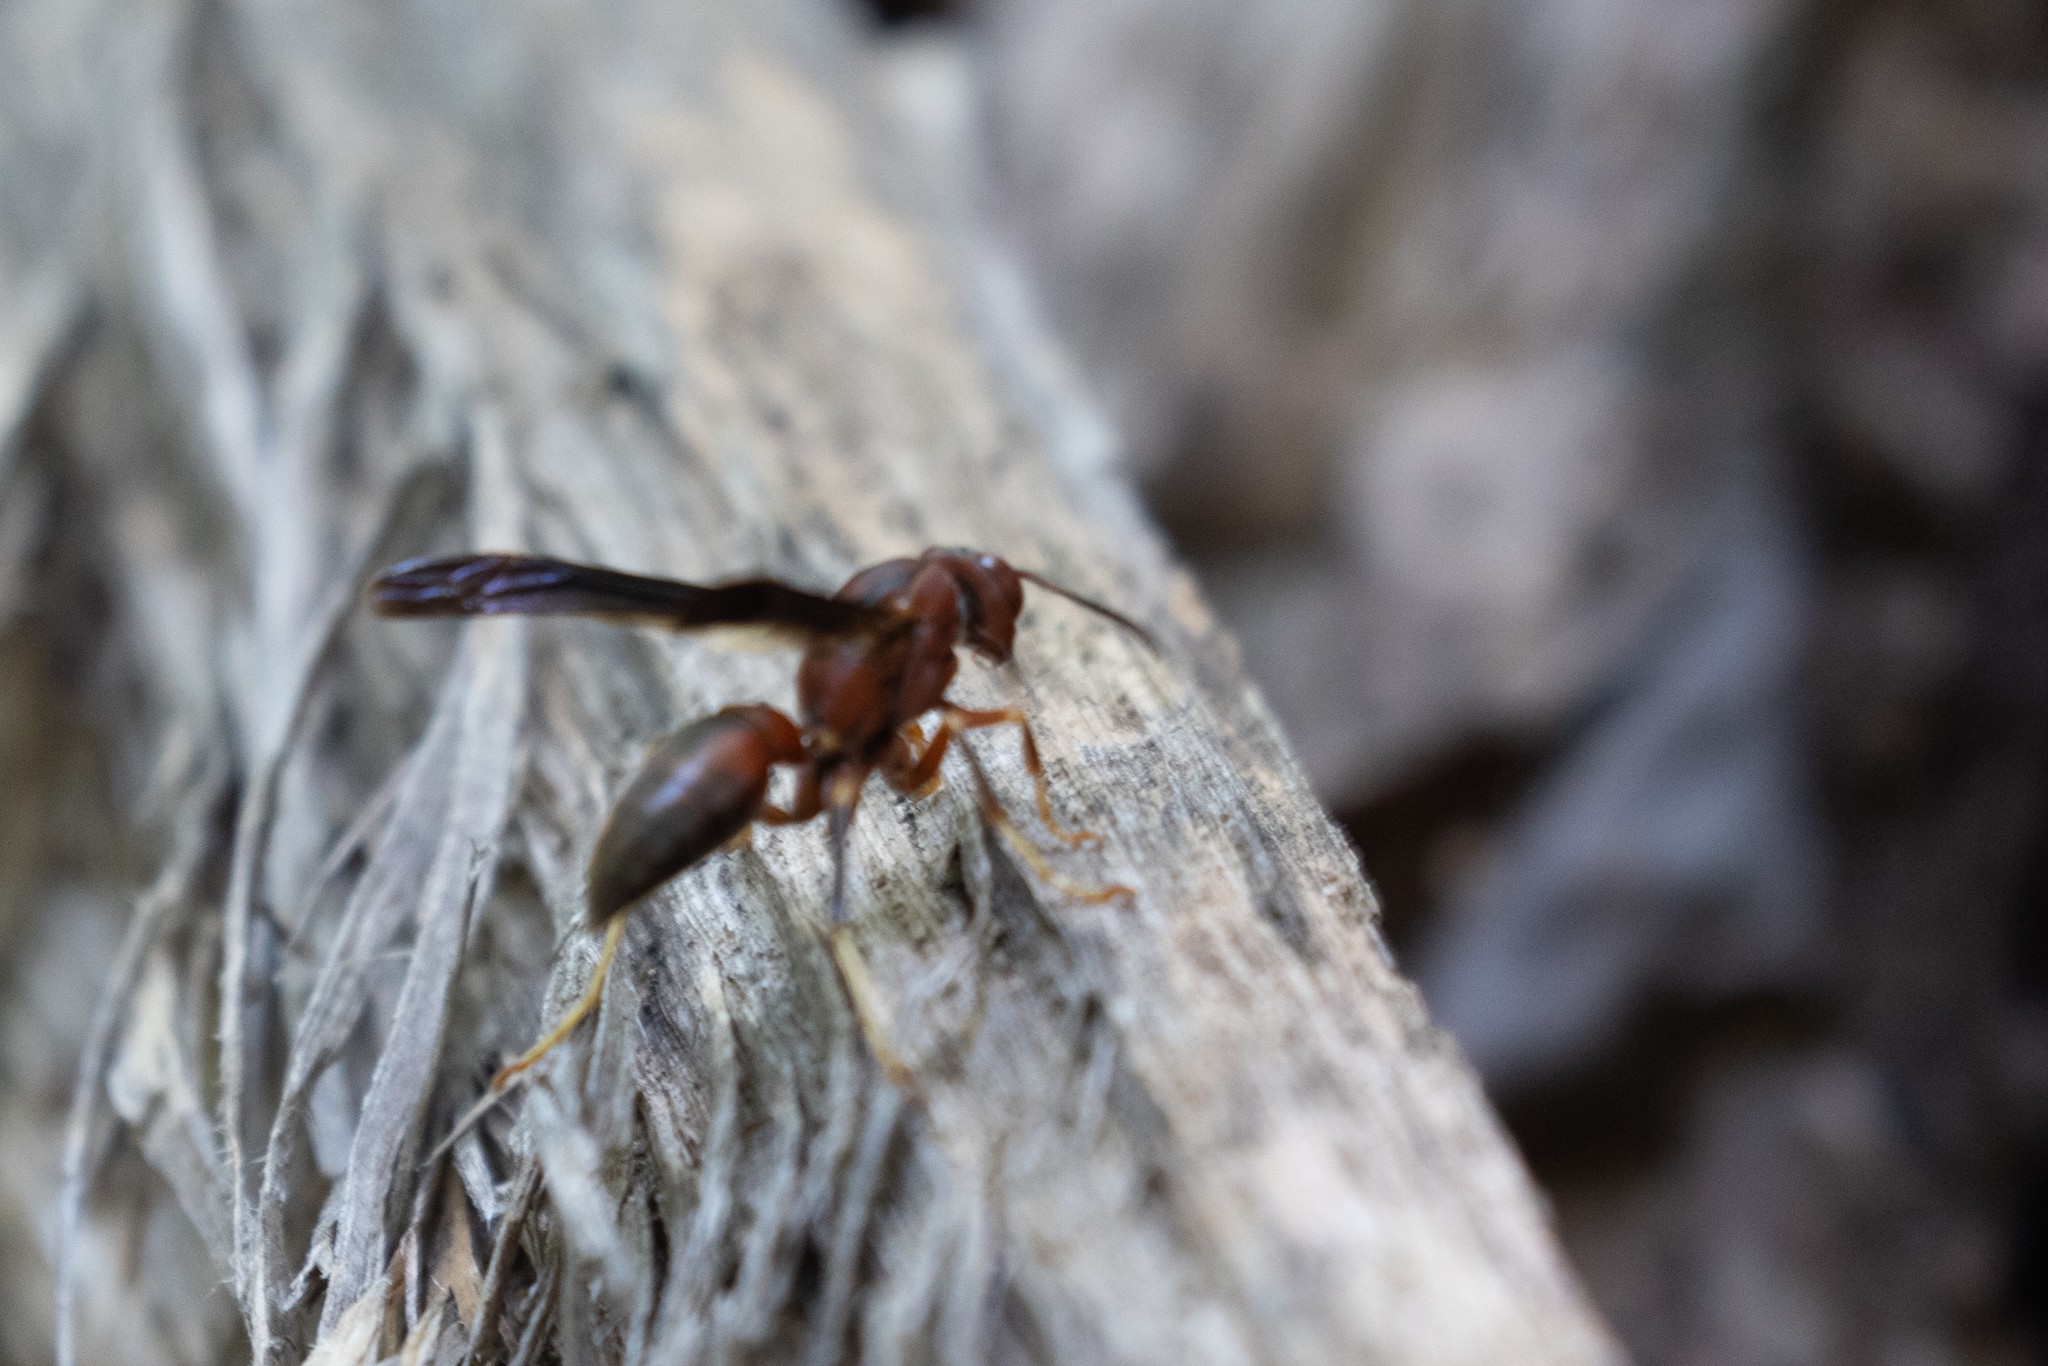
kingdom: Animalia
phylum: Arthropoda
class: Insecta
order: Hymenoptera
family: Eumenidae
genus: Polistes
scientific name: Polistes metricus
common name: Metric paper wasp
